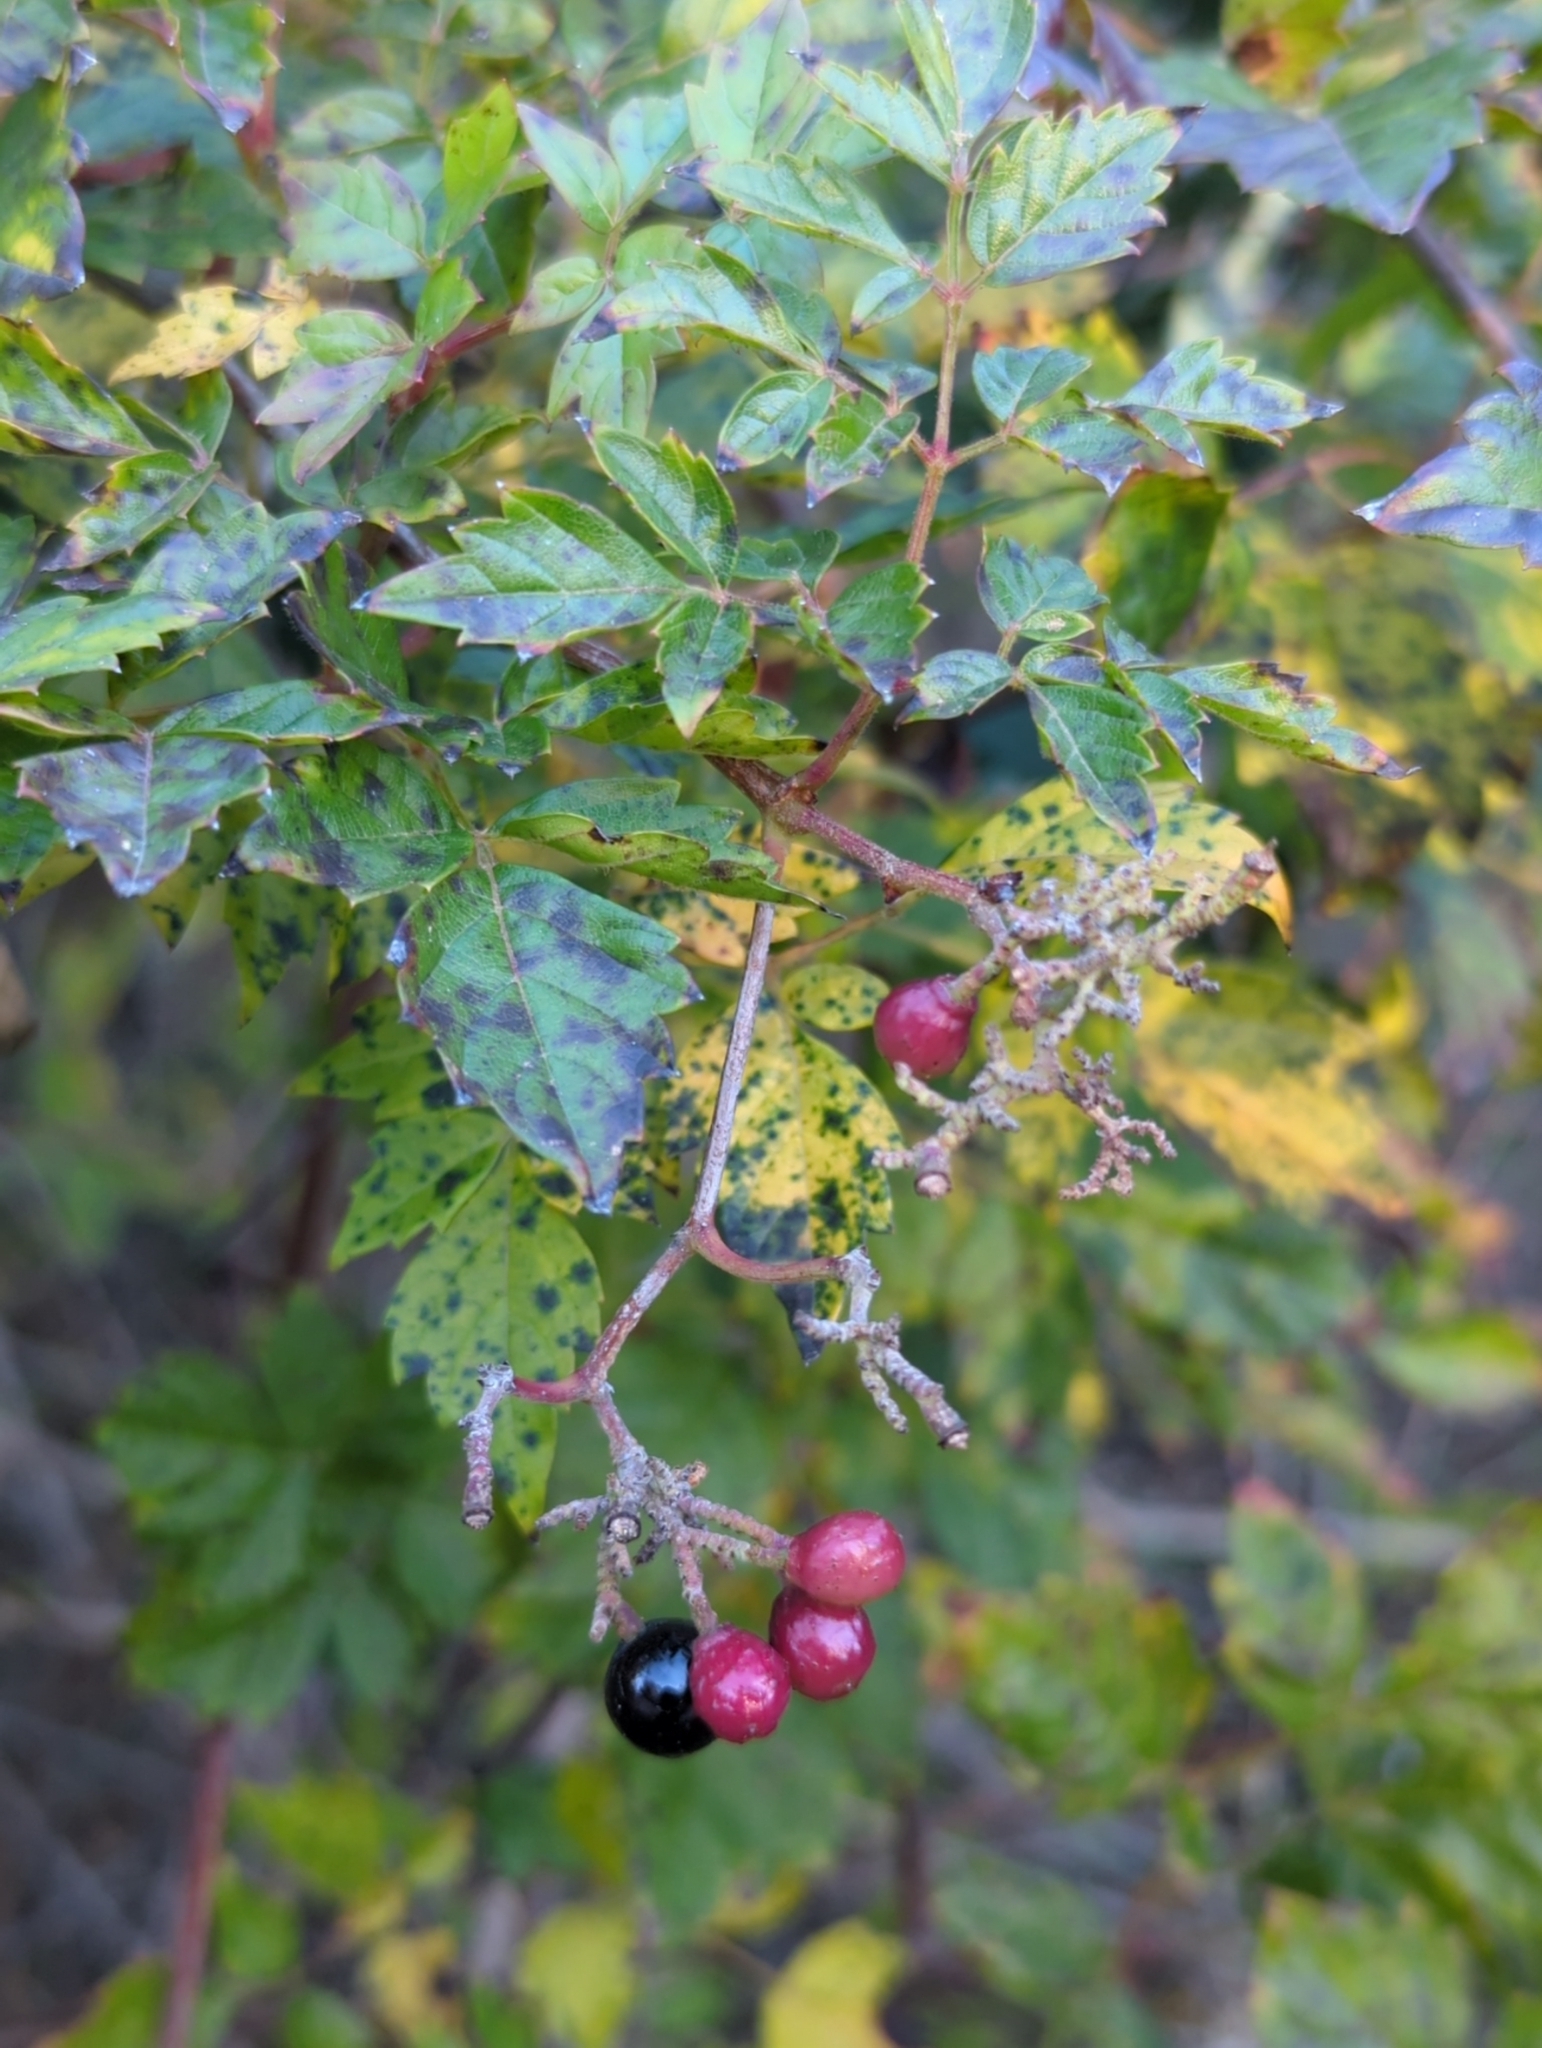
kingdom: Plantae
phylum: Tracheophyta
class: Magnoliopsida
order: Vitales
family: Vitaceae
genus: Nekemias
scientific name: Nekemias arborea
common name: Peppervine
